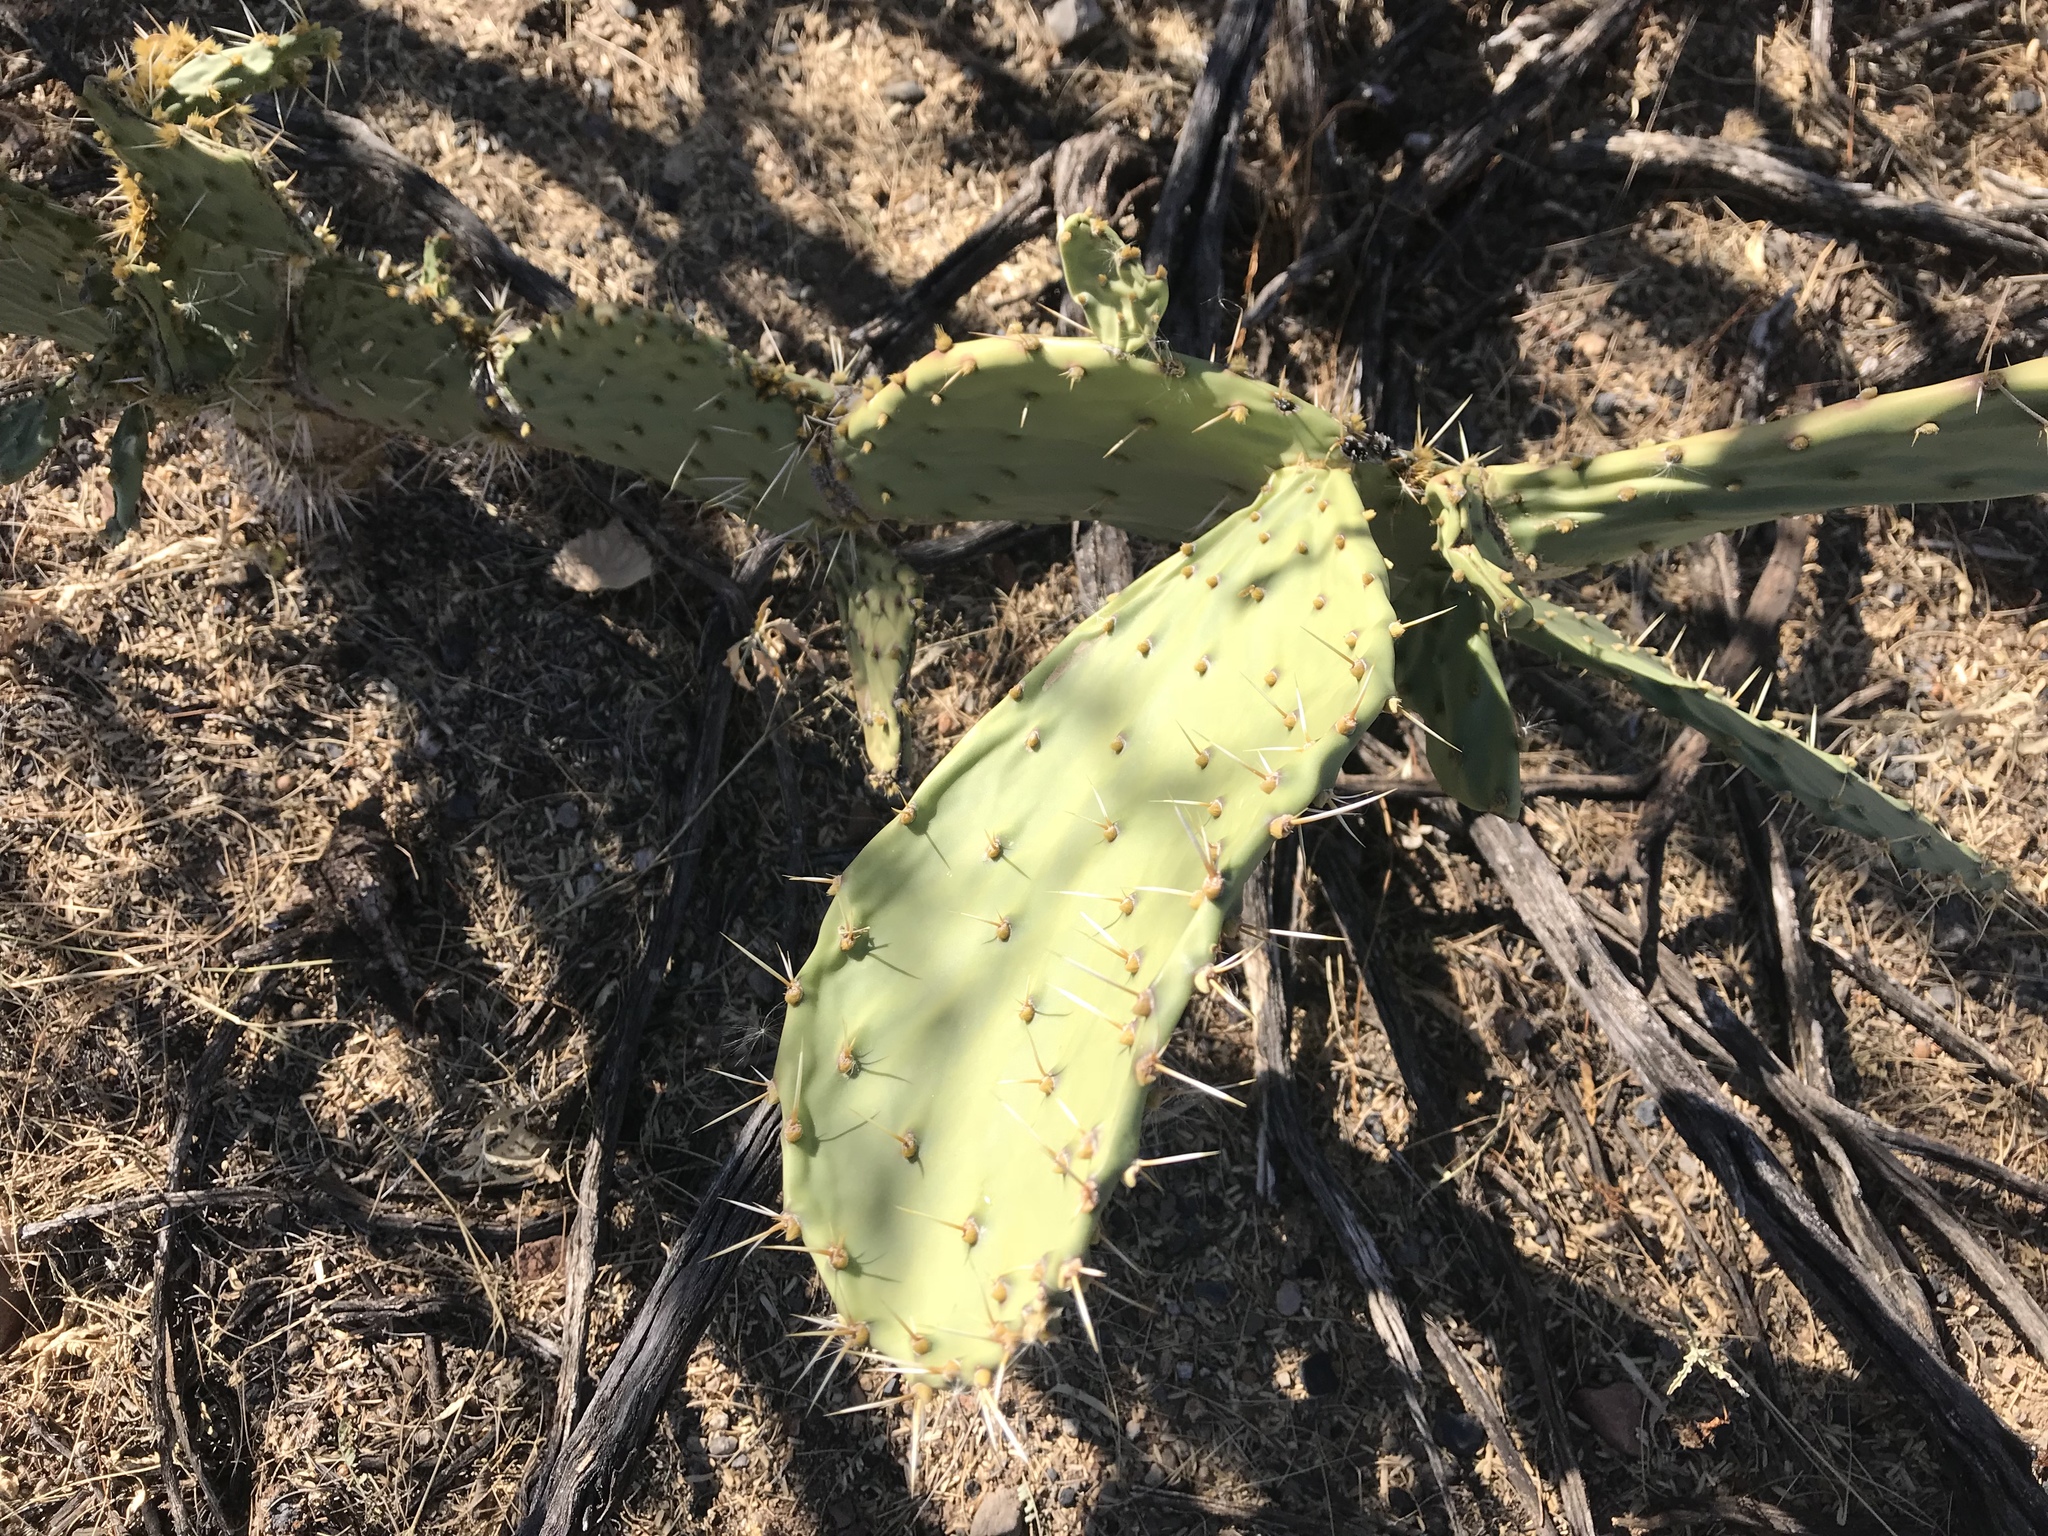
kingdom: Plantae
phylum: Tracheophyta
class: Magnoliopsida
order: Caryophyllales
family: Cactaceae
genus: Opuntia
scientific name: Opuntia chlorotica
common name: Dollar-joint prickly-pear
